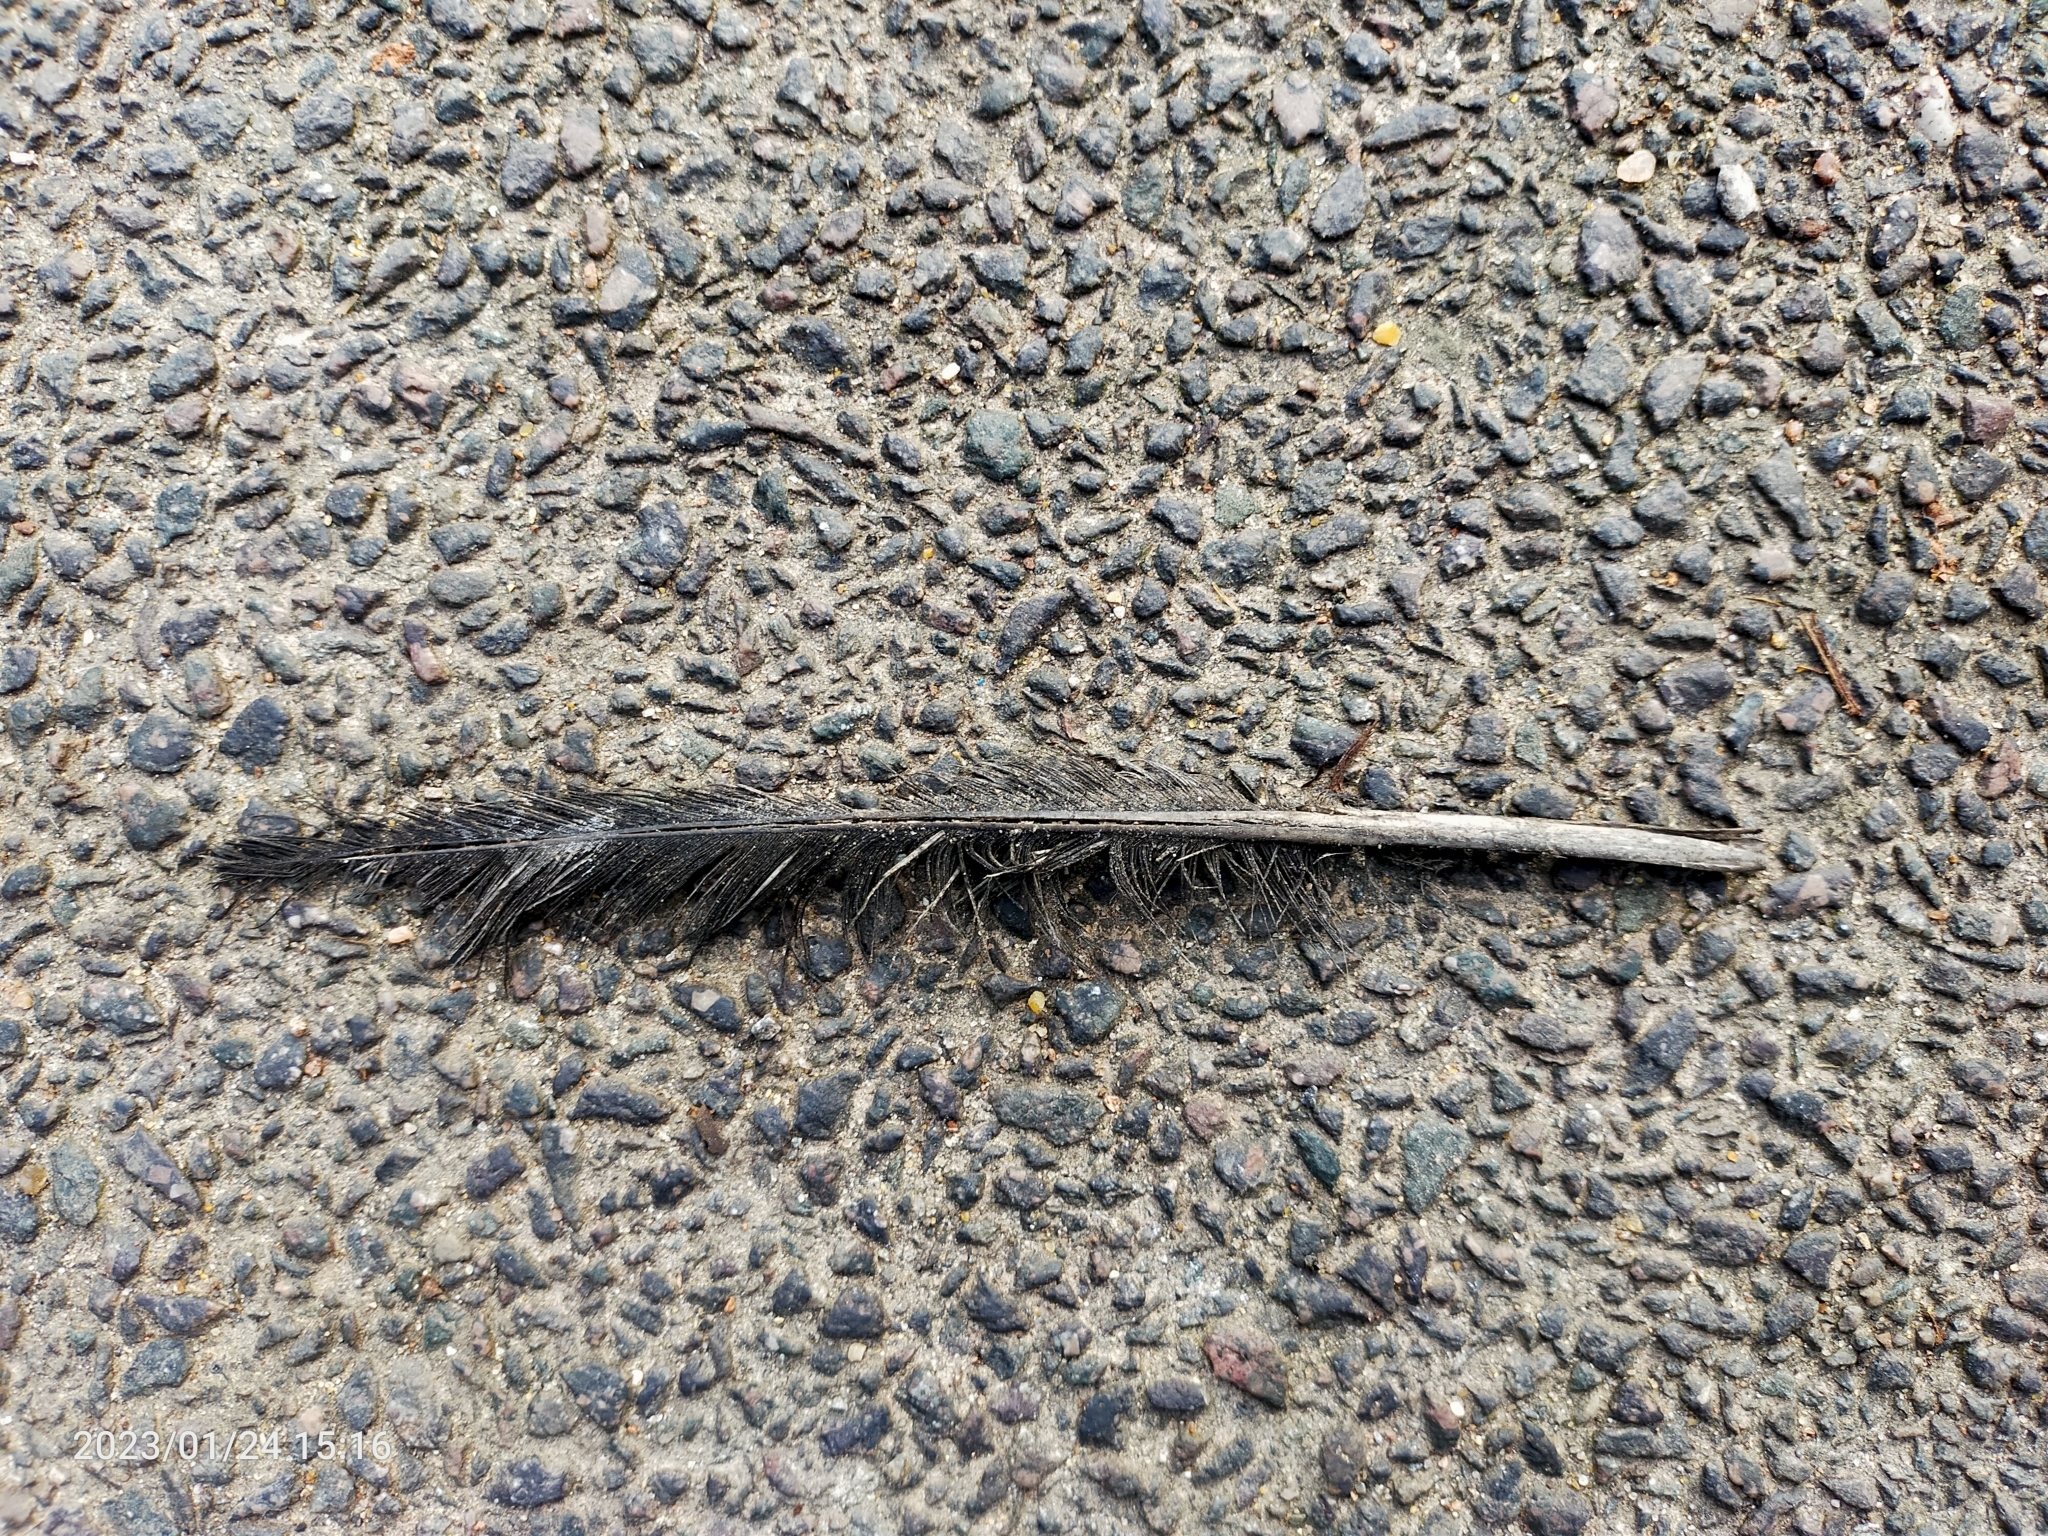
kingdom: Animalia
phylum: Chordata
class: Aves
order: Columbiformes
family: Columbidae
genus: Columba
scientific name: Columba palumbus
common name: Common wood pigeon
